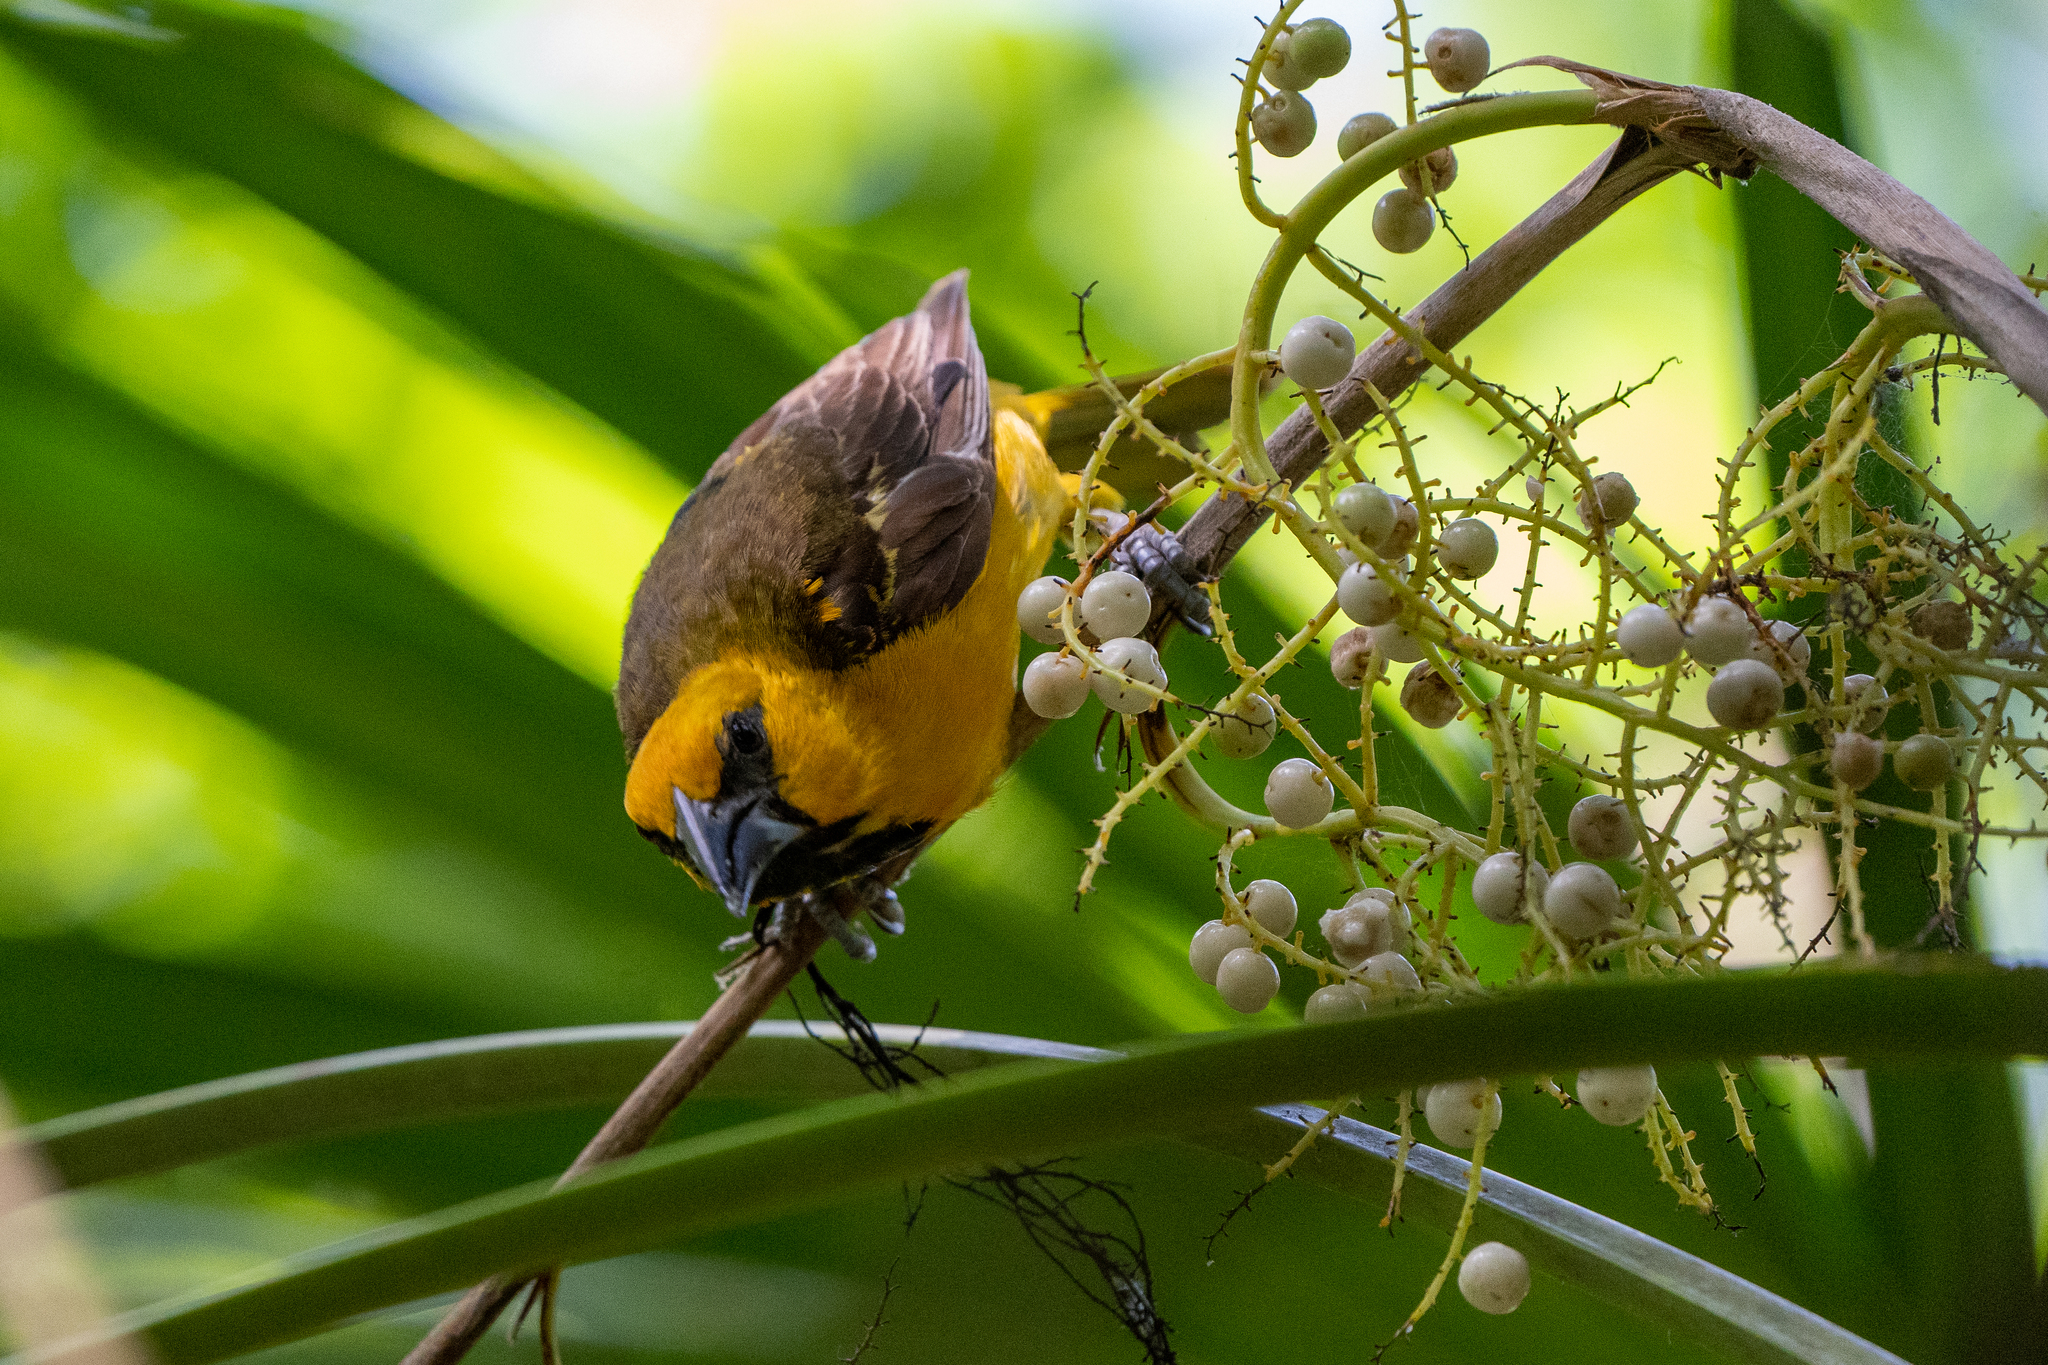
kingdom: Animalia
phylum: Chordata
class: Aves
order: Passeriformes
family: Icteridae
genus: Icterus
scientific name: Icterus gularis
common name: Altamira oriole
